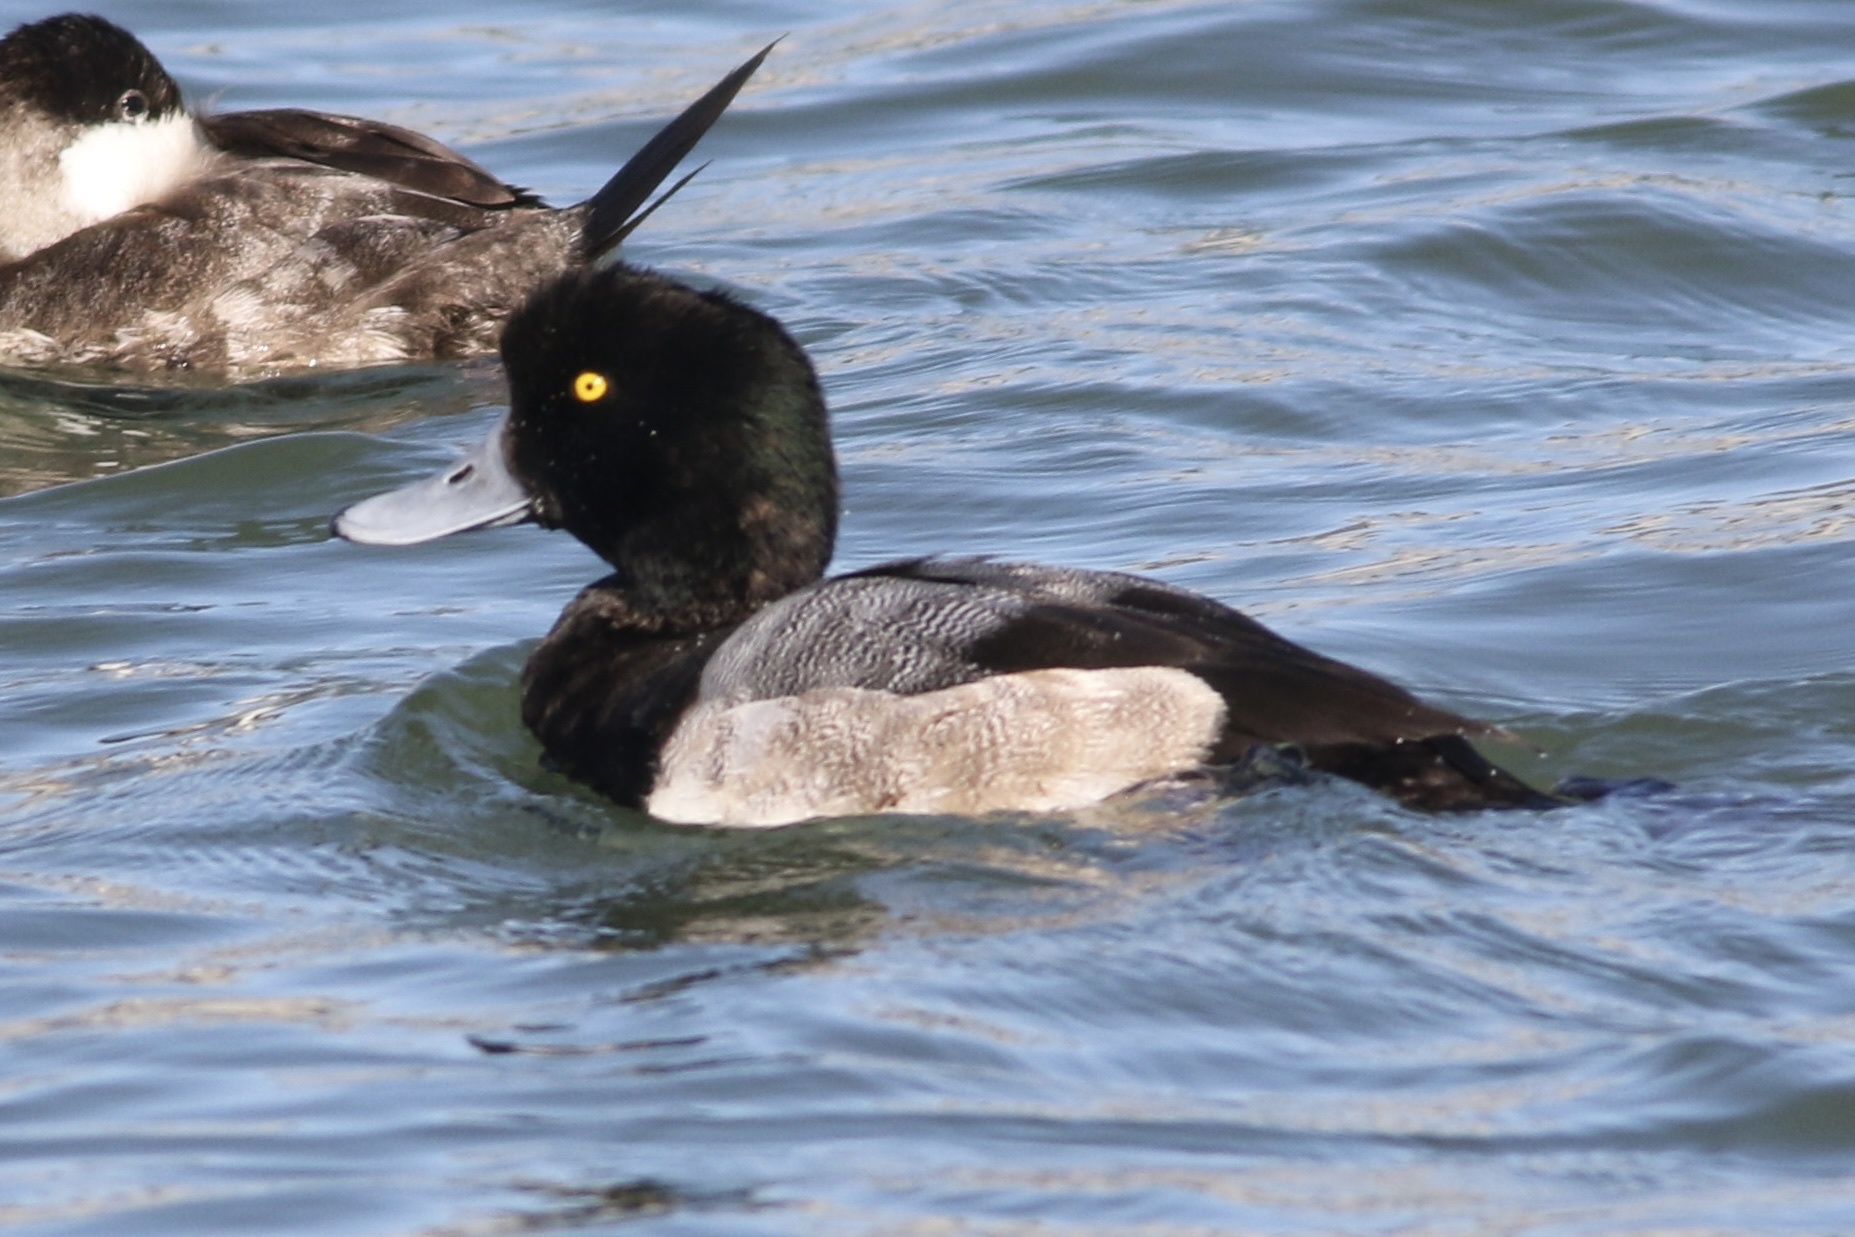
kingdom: Animalia
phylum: Chordata
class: Aves
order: Anseriformes
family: Anatidae
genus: Aythya
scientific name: Aythya marila
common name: Greater scaup
